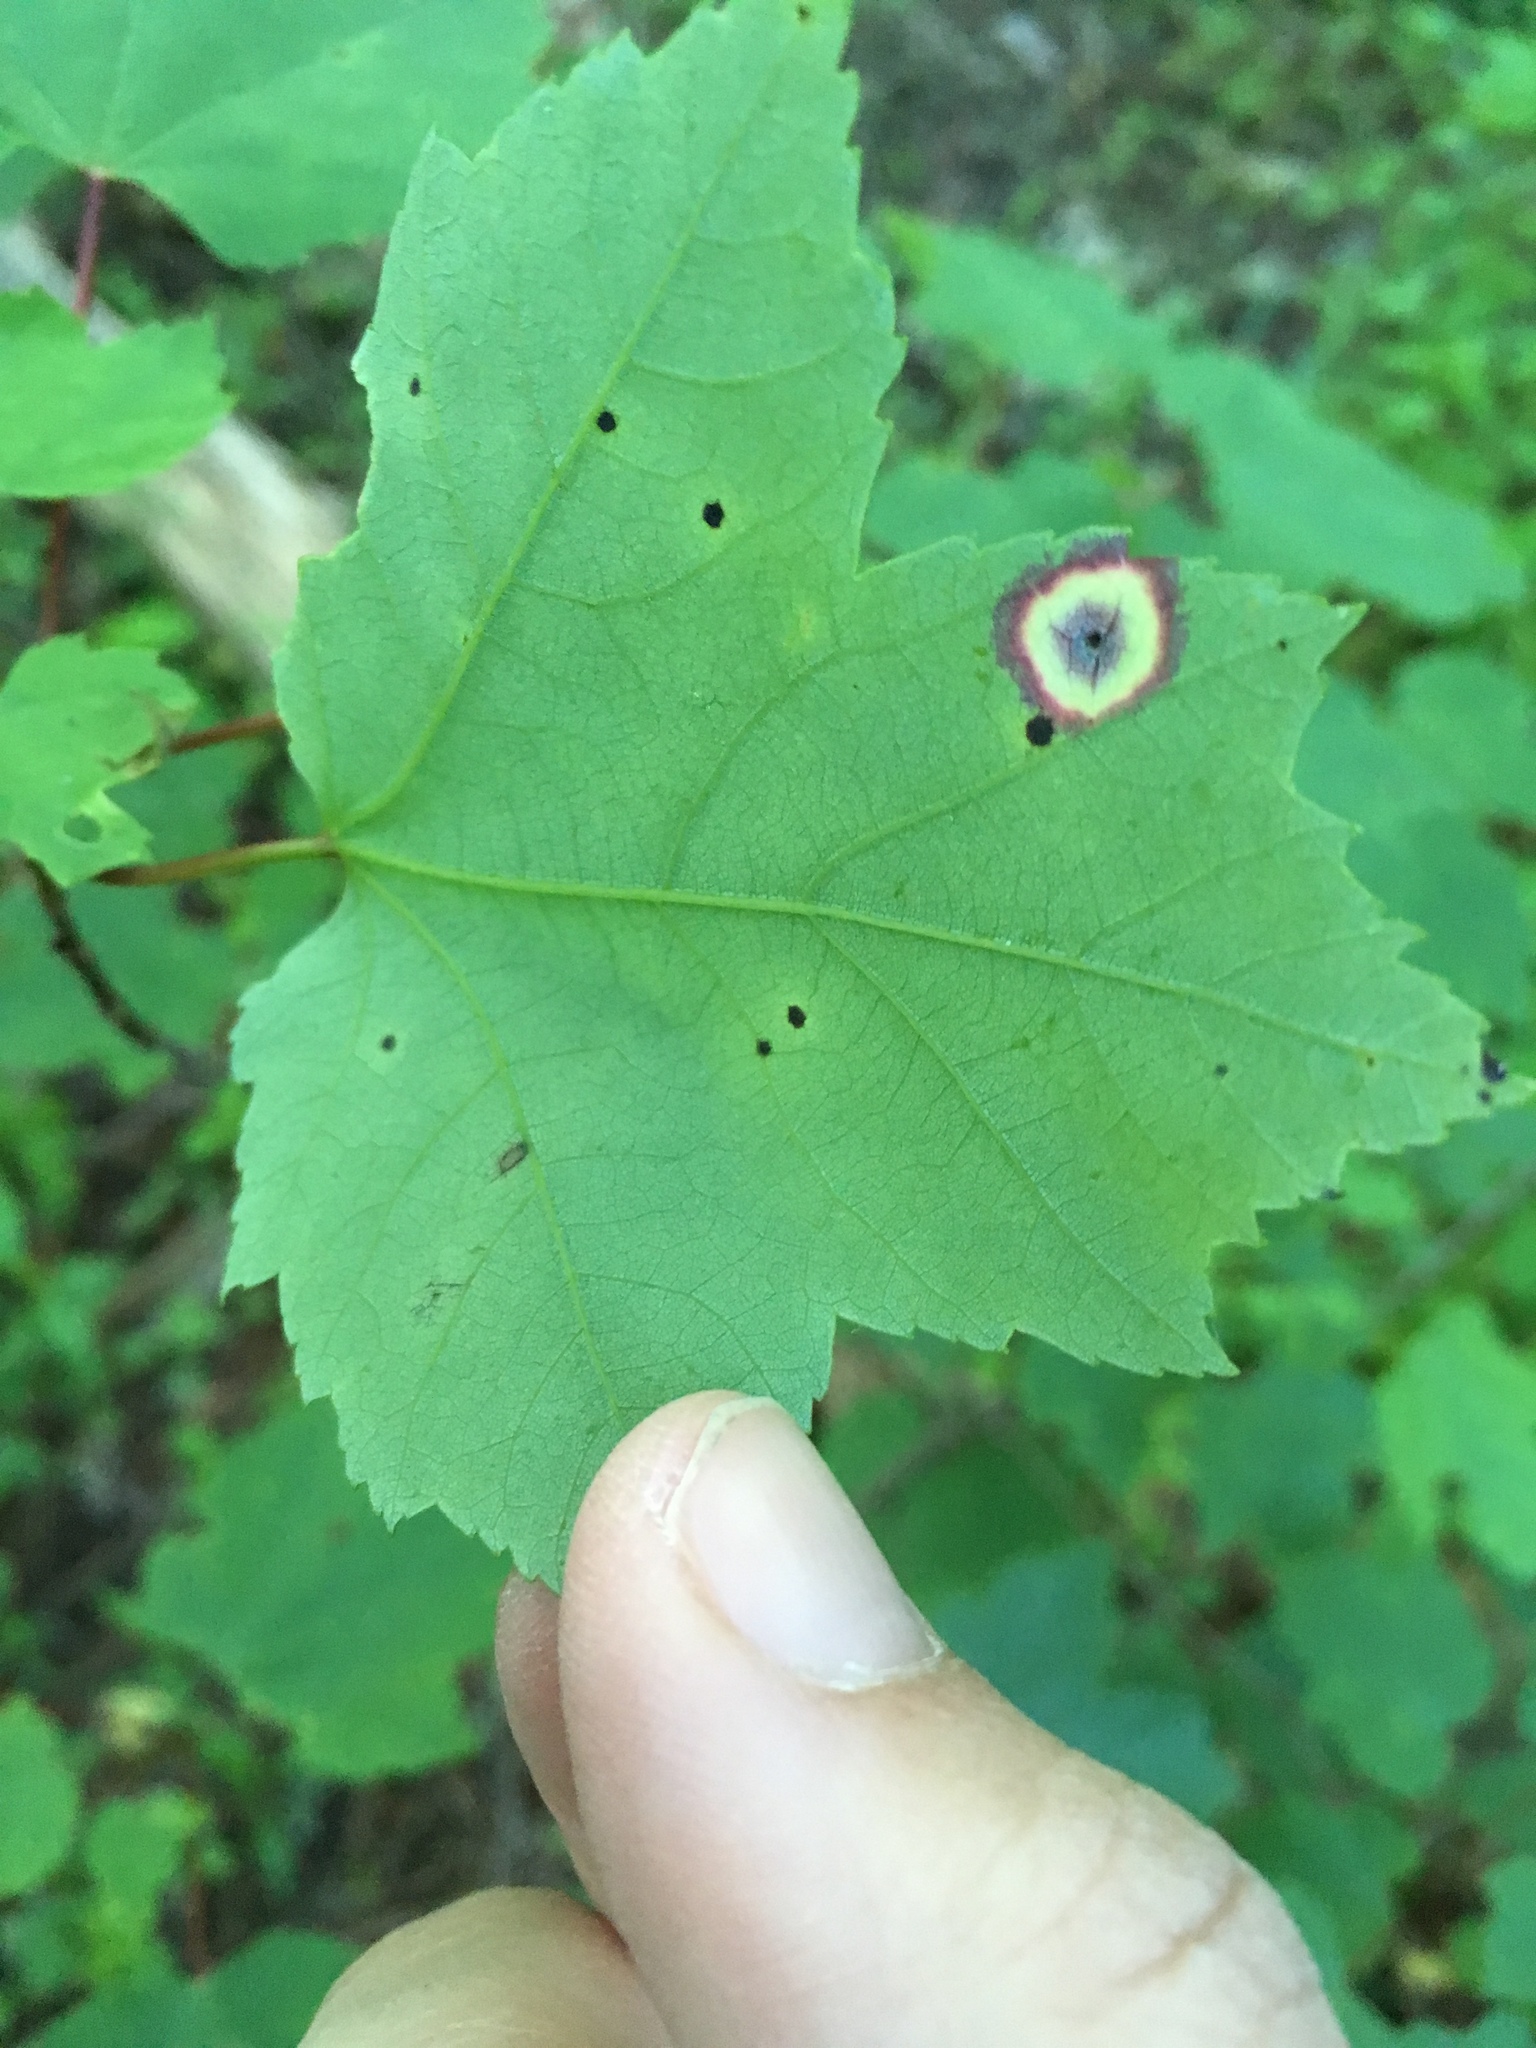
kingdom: Animalia
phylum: Arthropoda
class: Insecta
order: Diptera
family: Cecidomyiidae
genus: Acericecis
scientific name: Acericecis ocellaris
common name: Ocellate gall midge
